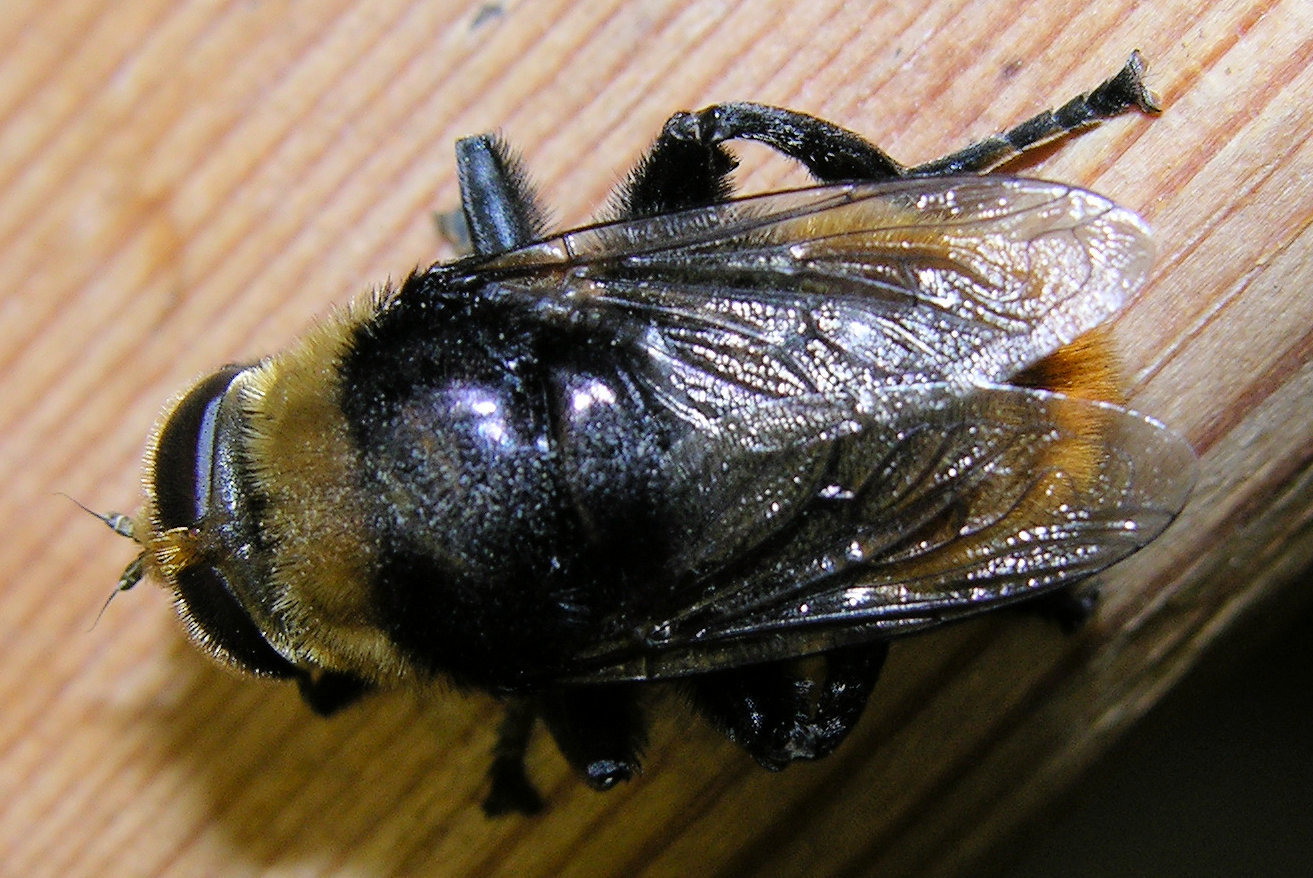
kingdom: Animalia
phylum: Arthropoda
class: Insecta
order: Diptera
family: Syrphidae
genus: Merodon
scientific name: Merodon equestris
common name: Greater bulb-fly
